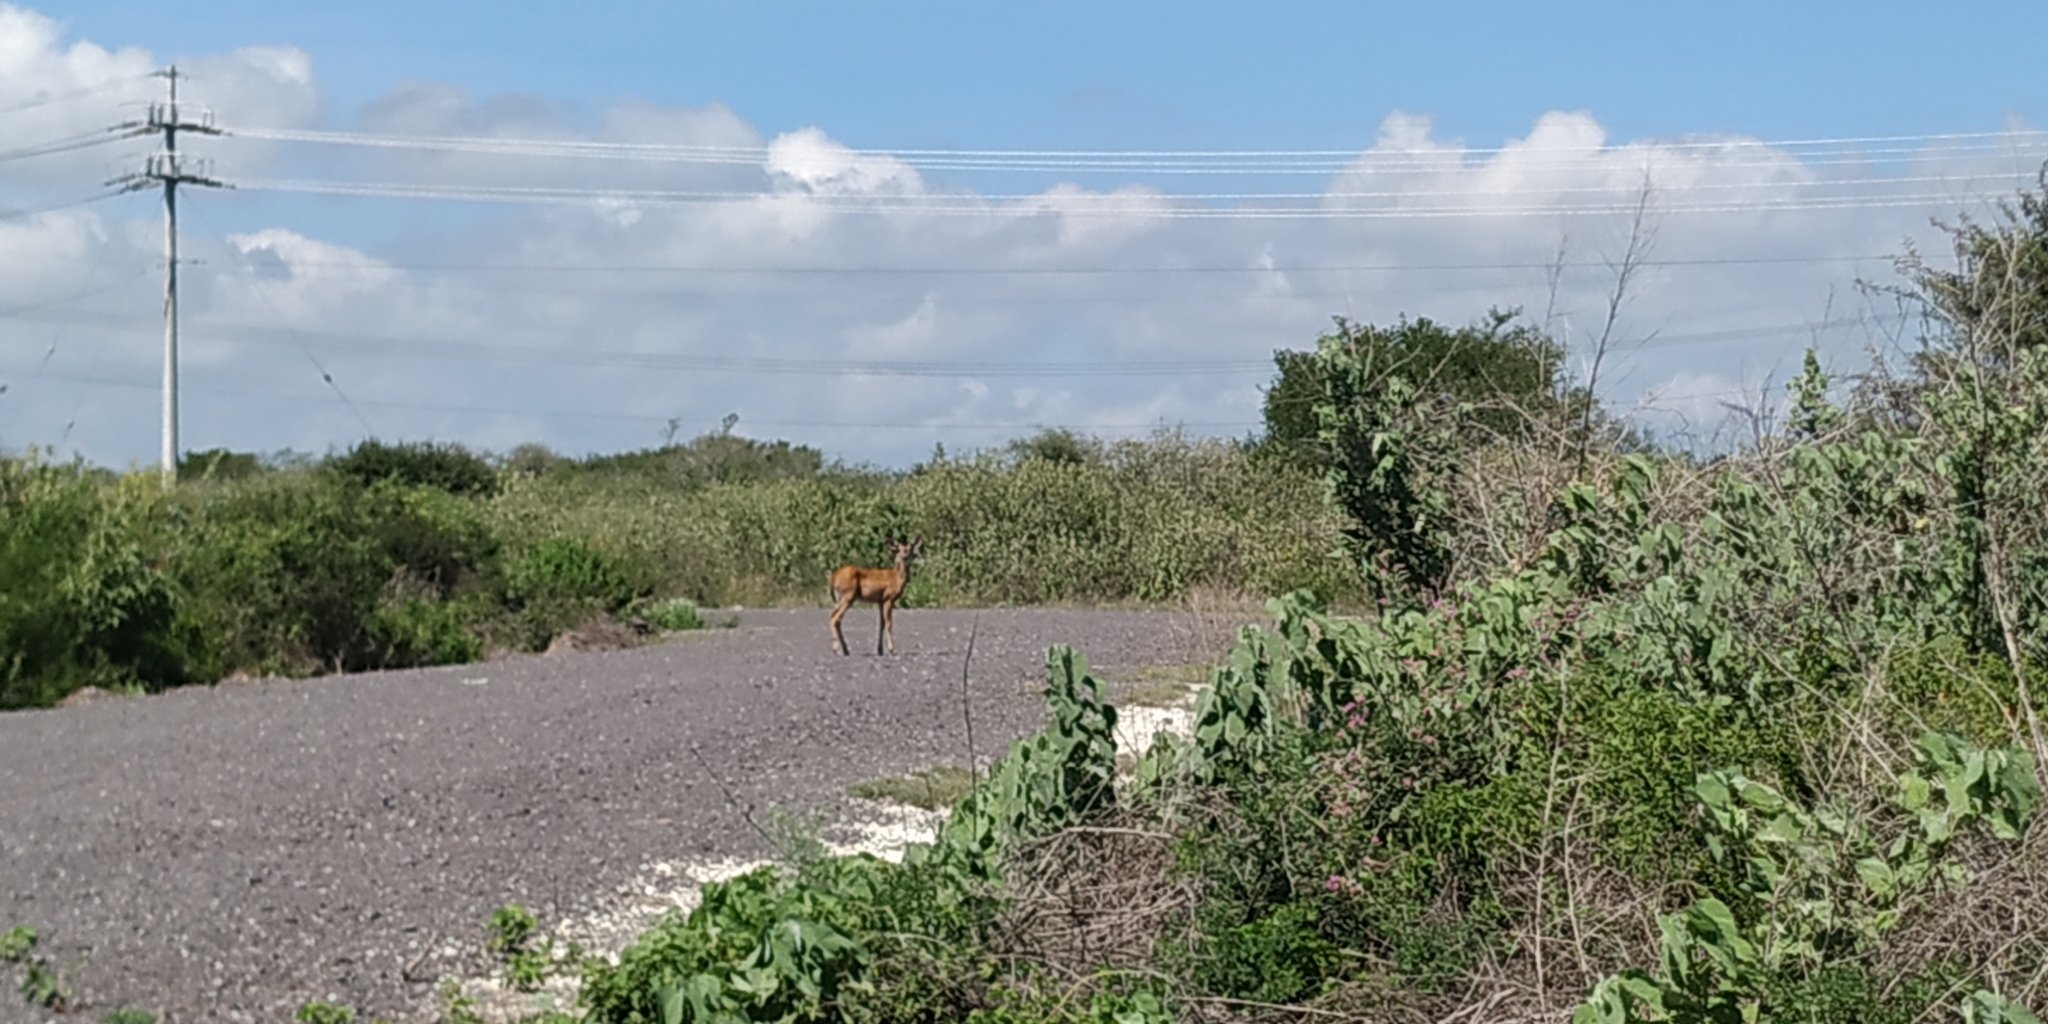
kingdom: Animalia
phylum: Chordata
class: Mammalia
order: Artiodactyla
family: Cervidae
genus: Odocoileus
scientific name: Odocoileus virginianus
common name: White-tailed deer
